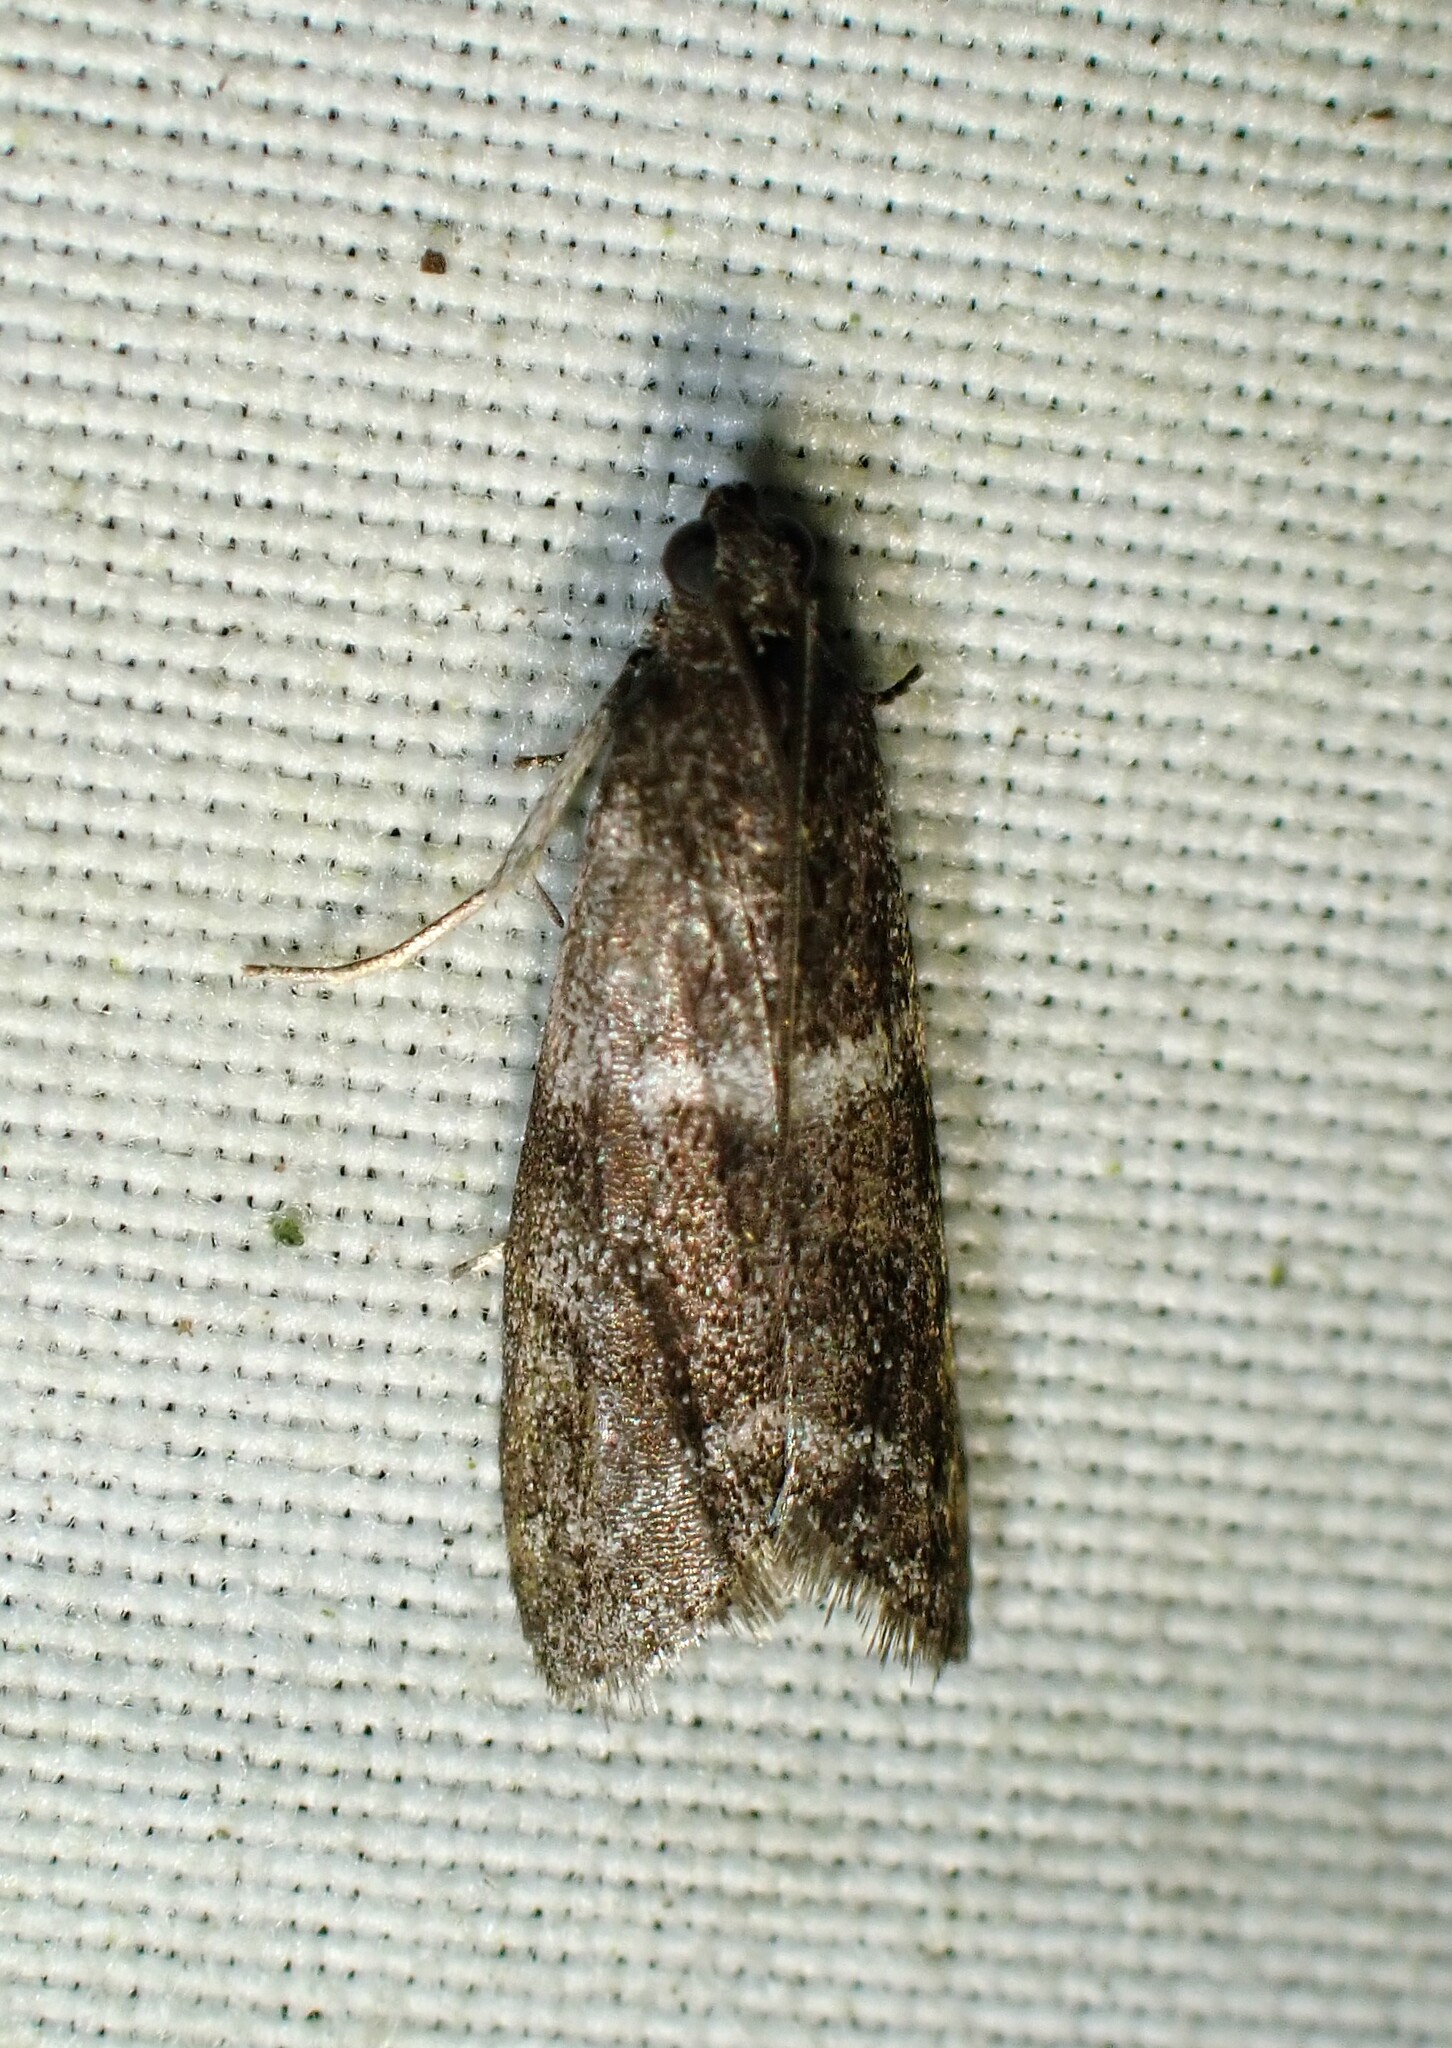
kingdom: Animalia
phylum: Arthropoda
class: Insecta
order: Lepidoptera
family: Pyralidae
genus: Apomyelois
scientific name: Apomyelois bistriatella
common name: Heath knot-horn
